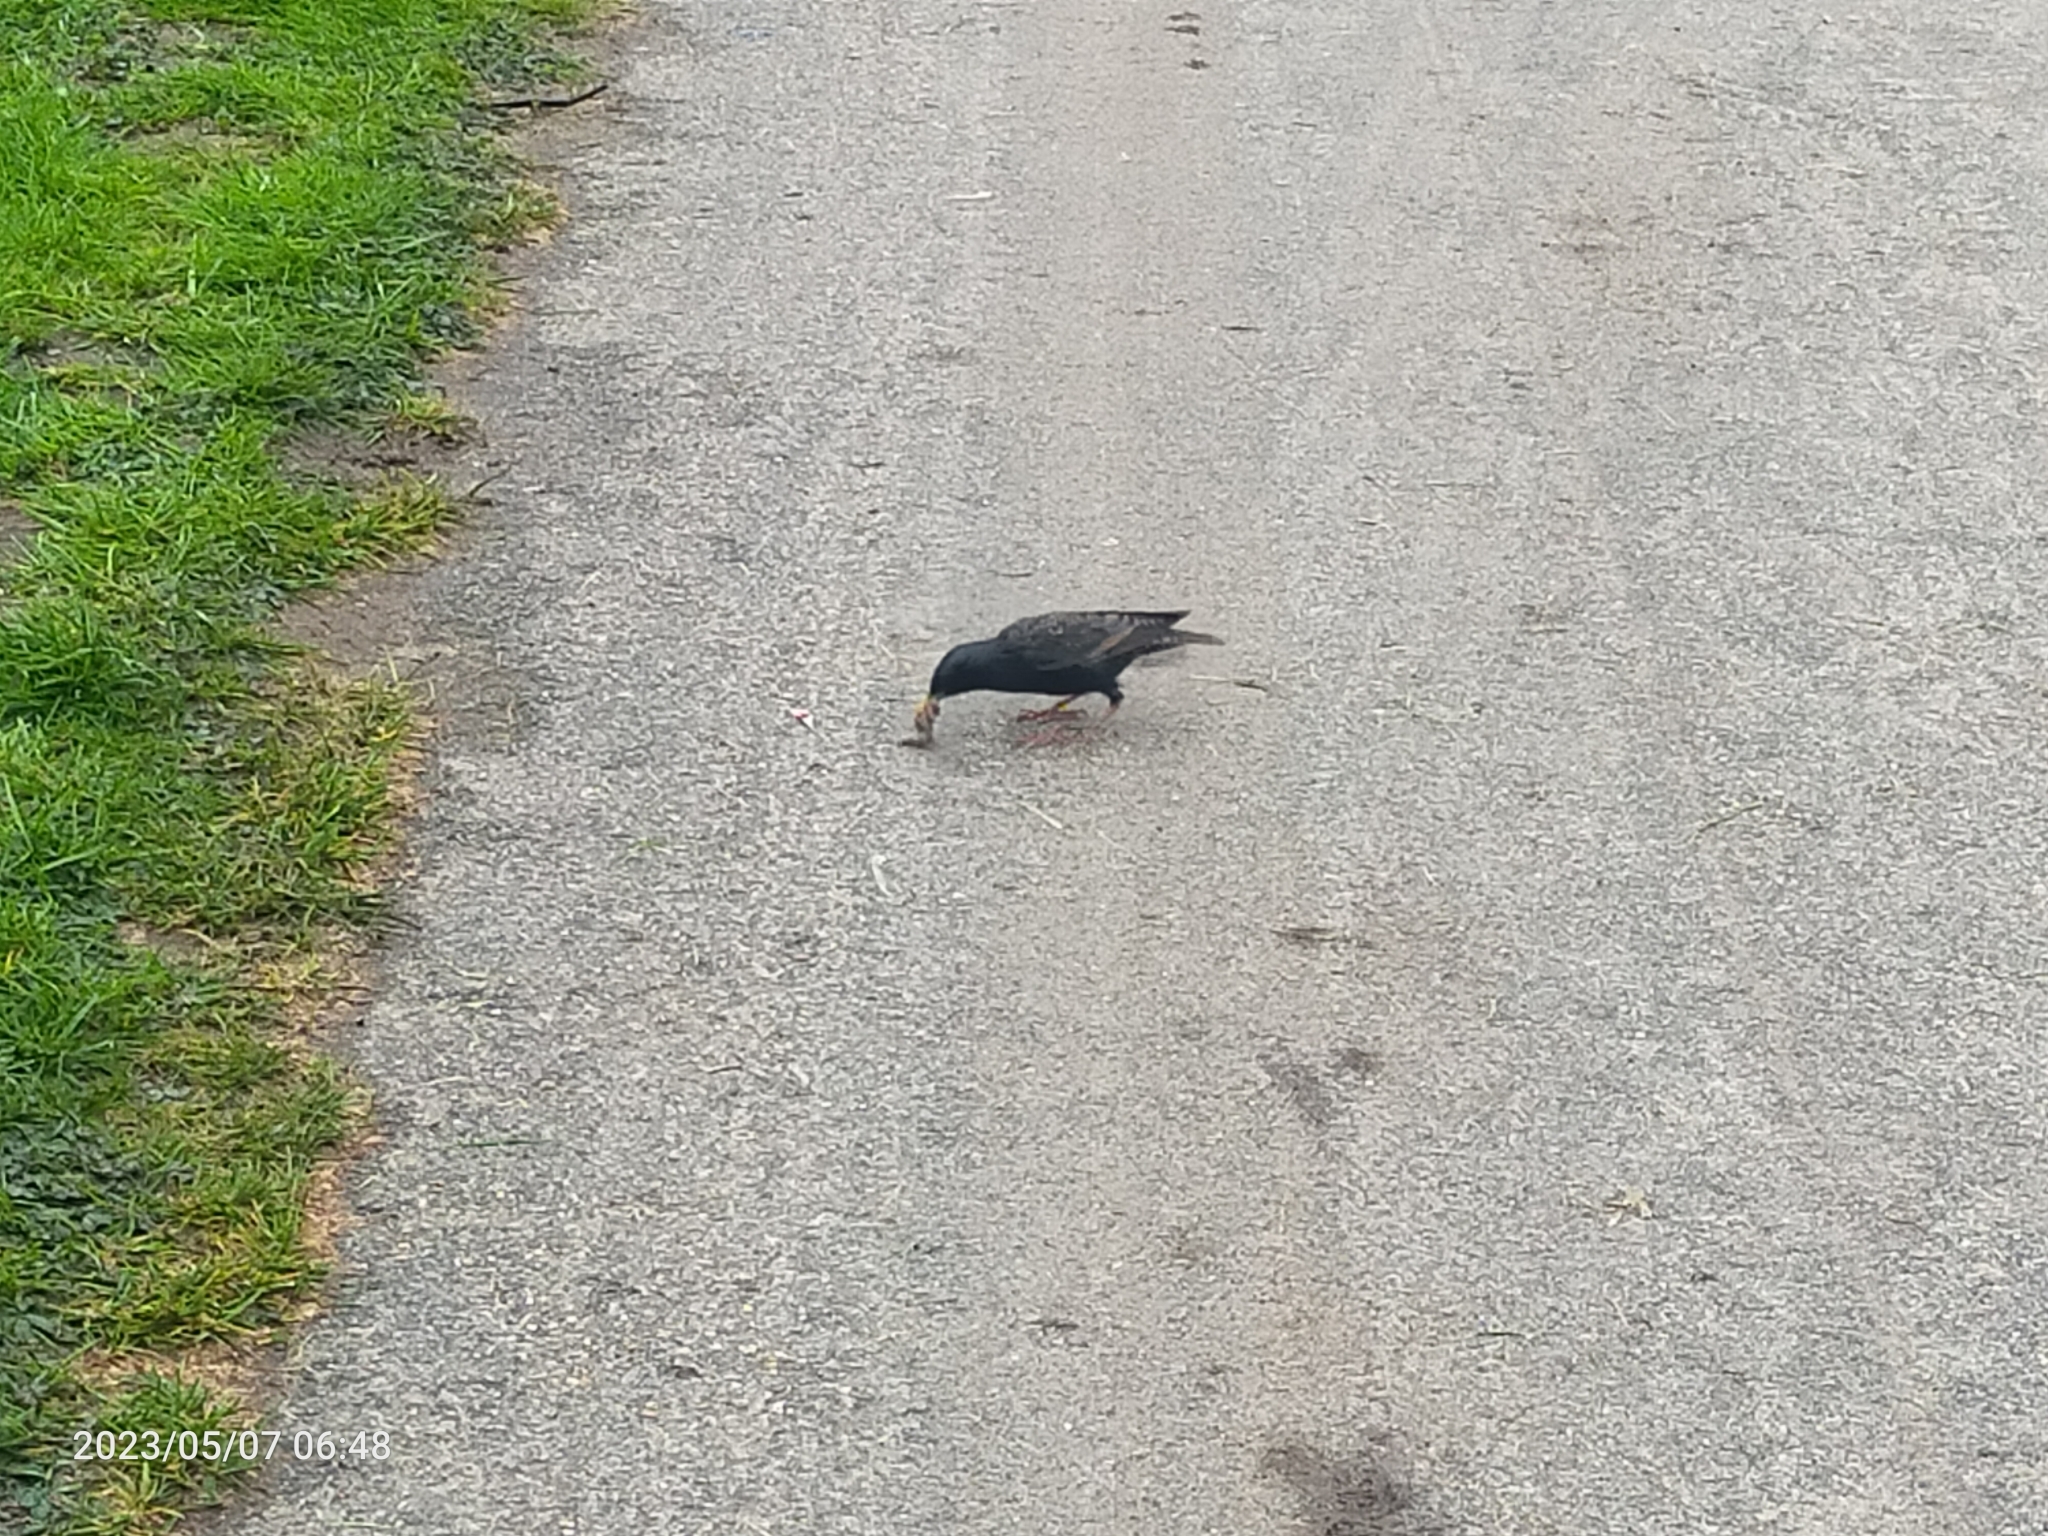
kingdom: Animalia
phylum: Chordata
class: Aves
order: Passeriformes
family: Sturnidae
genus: Sturnus
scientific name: Sturnus vulgaris
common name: Common starling
